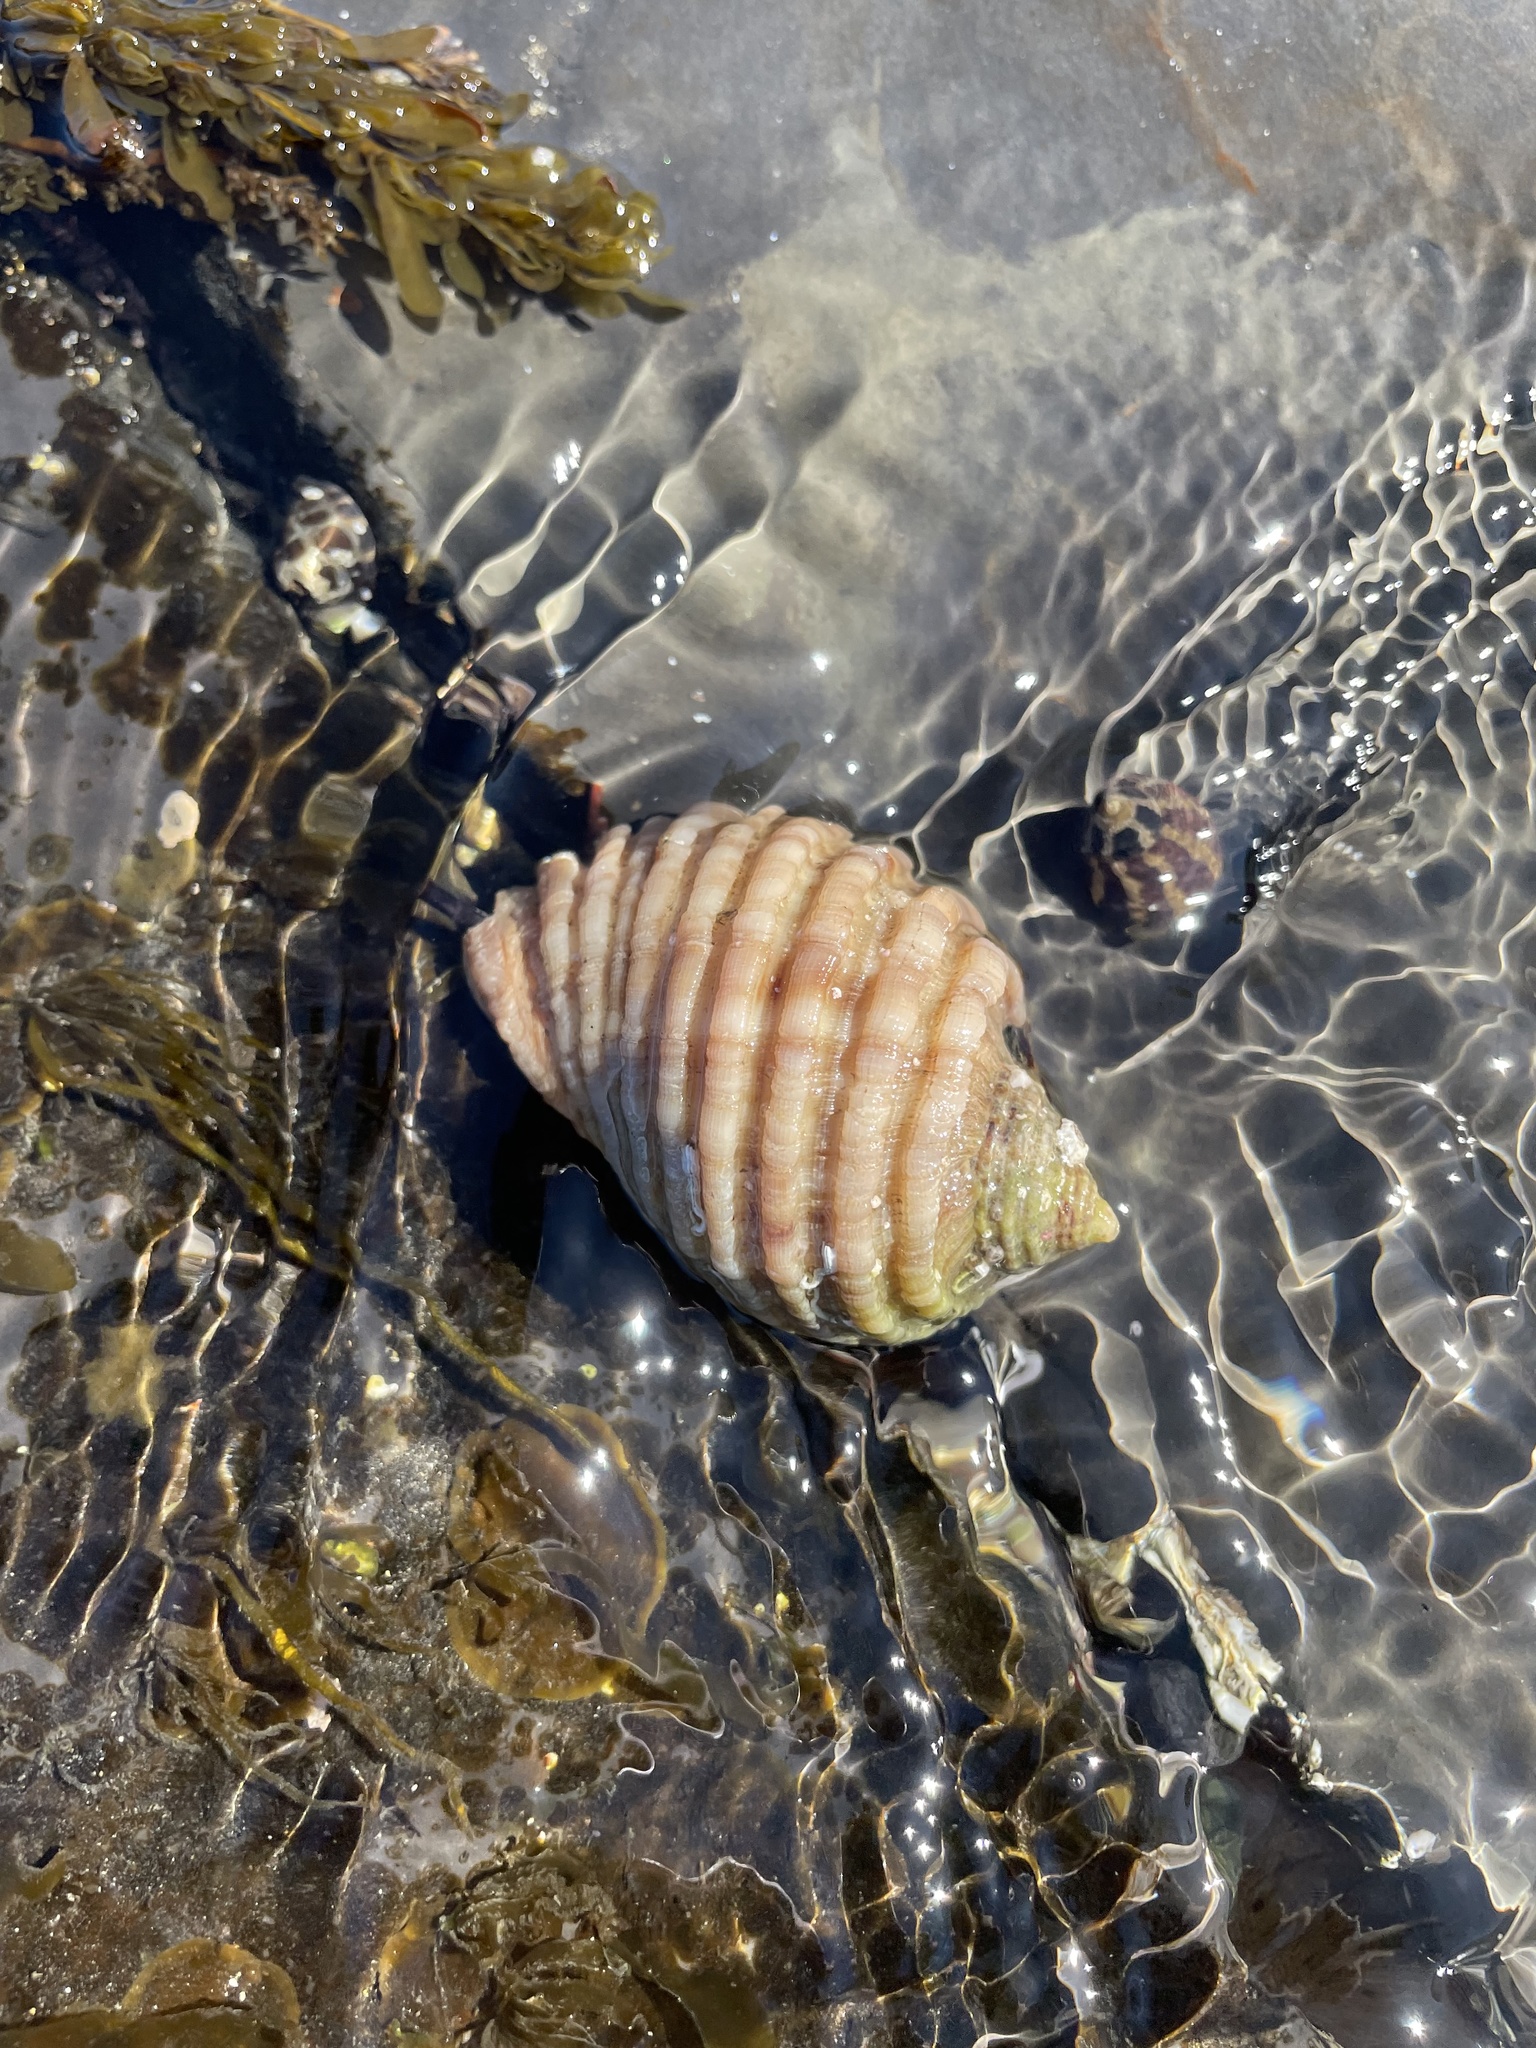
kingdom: Animalia
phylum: Mollusca
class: Gastropoda
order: Neogastropoda
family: Muricidae
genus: Dicathais
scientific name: Dicathais orbita
